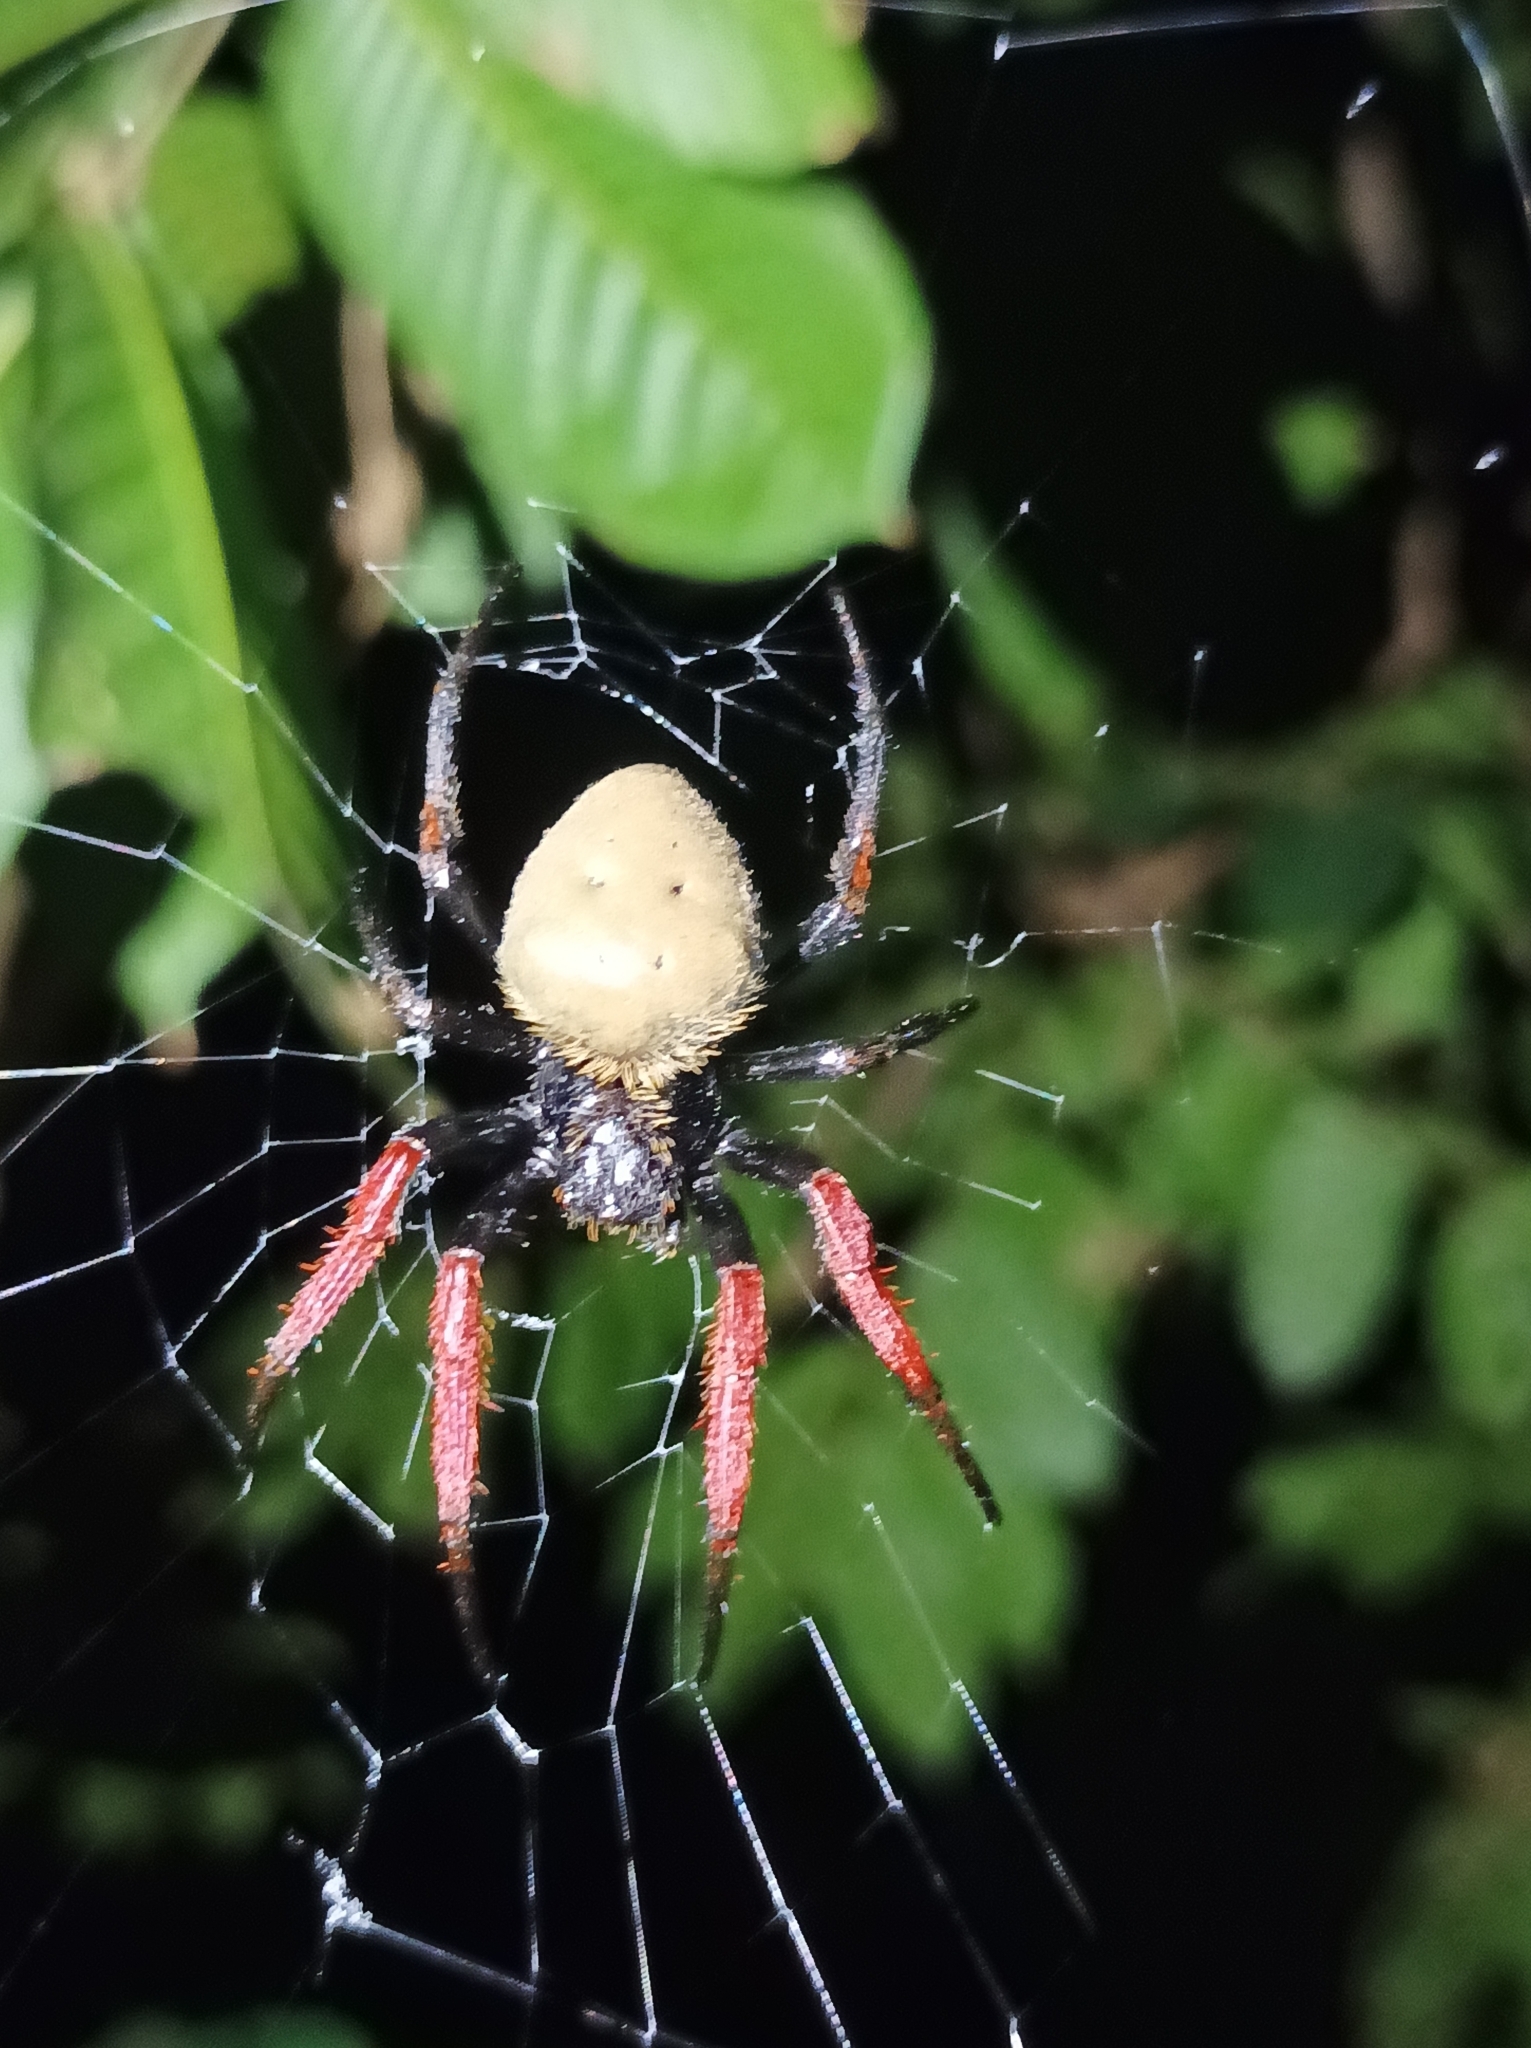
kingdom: Animalia
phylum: Arthropoda
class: Arachnida
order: Araneae
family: Araneidae
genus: Hortophora
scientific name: Hortophora capitalis
